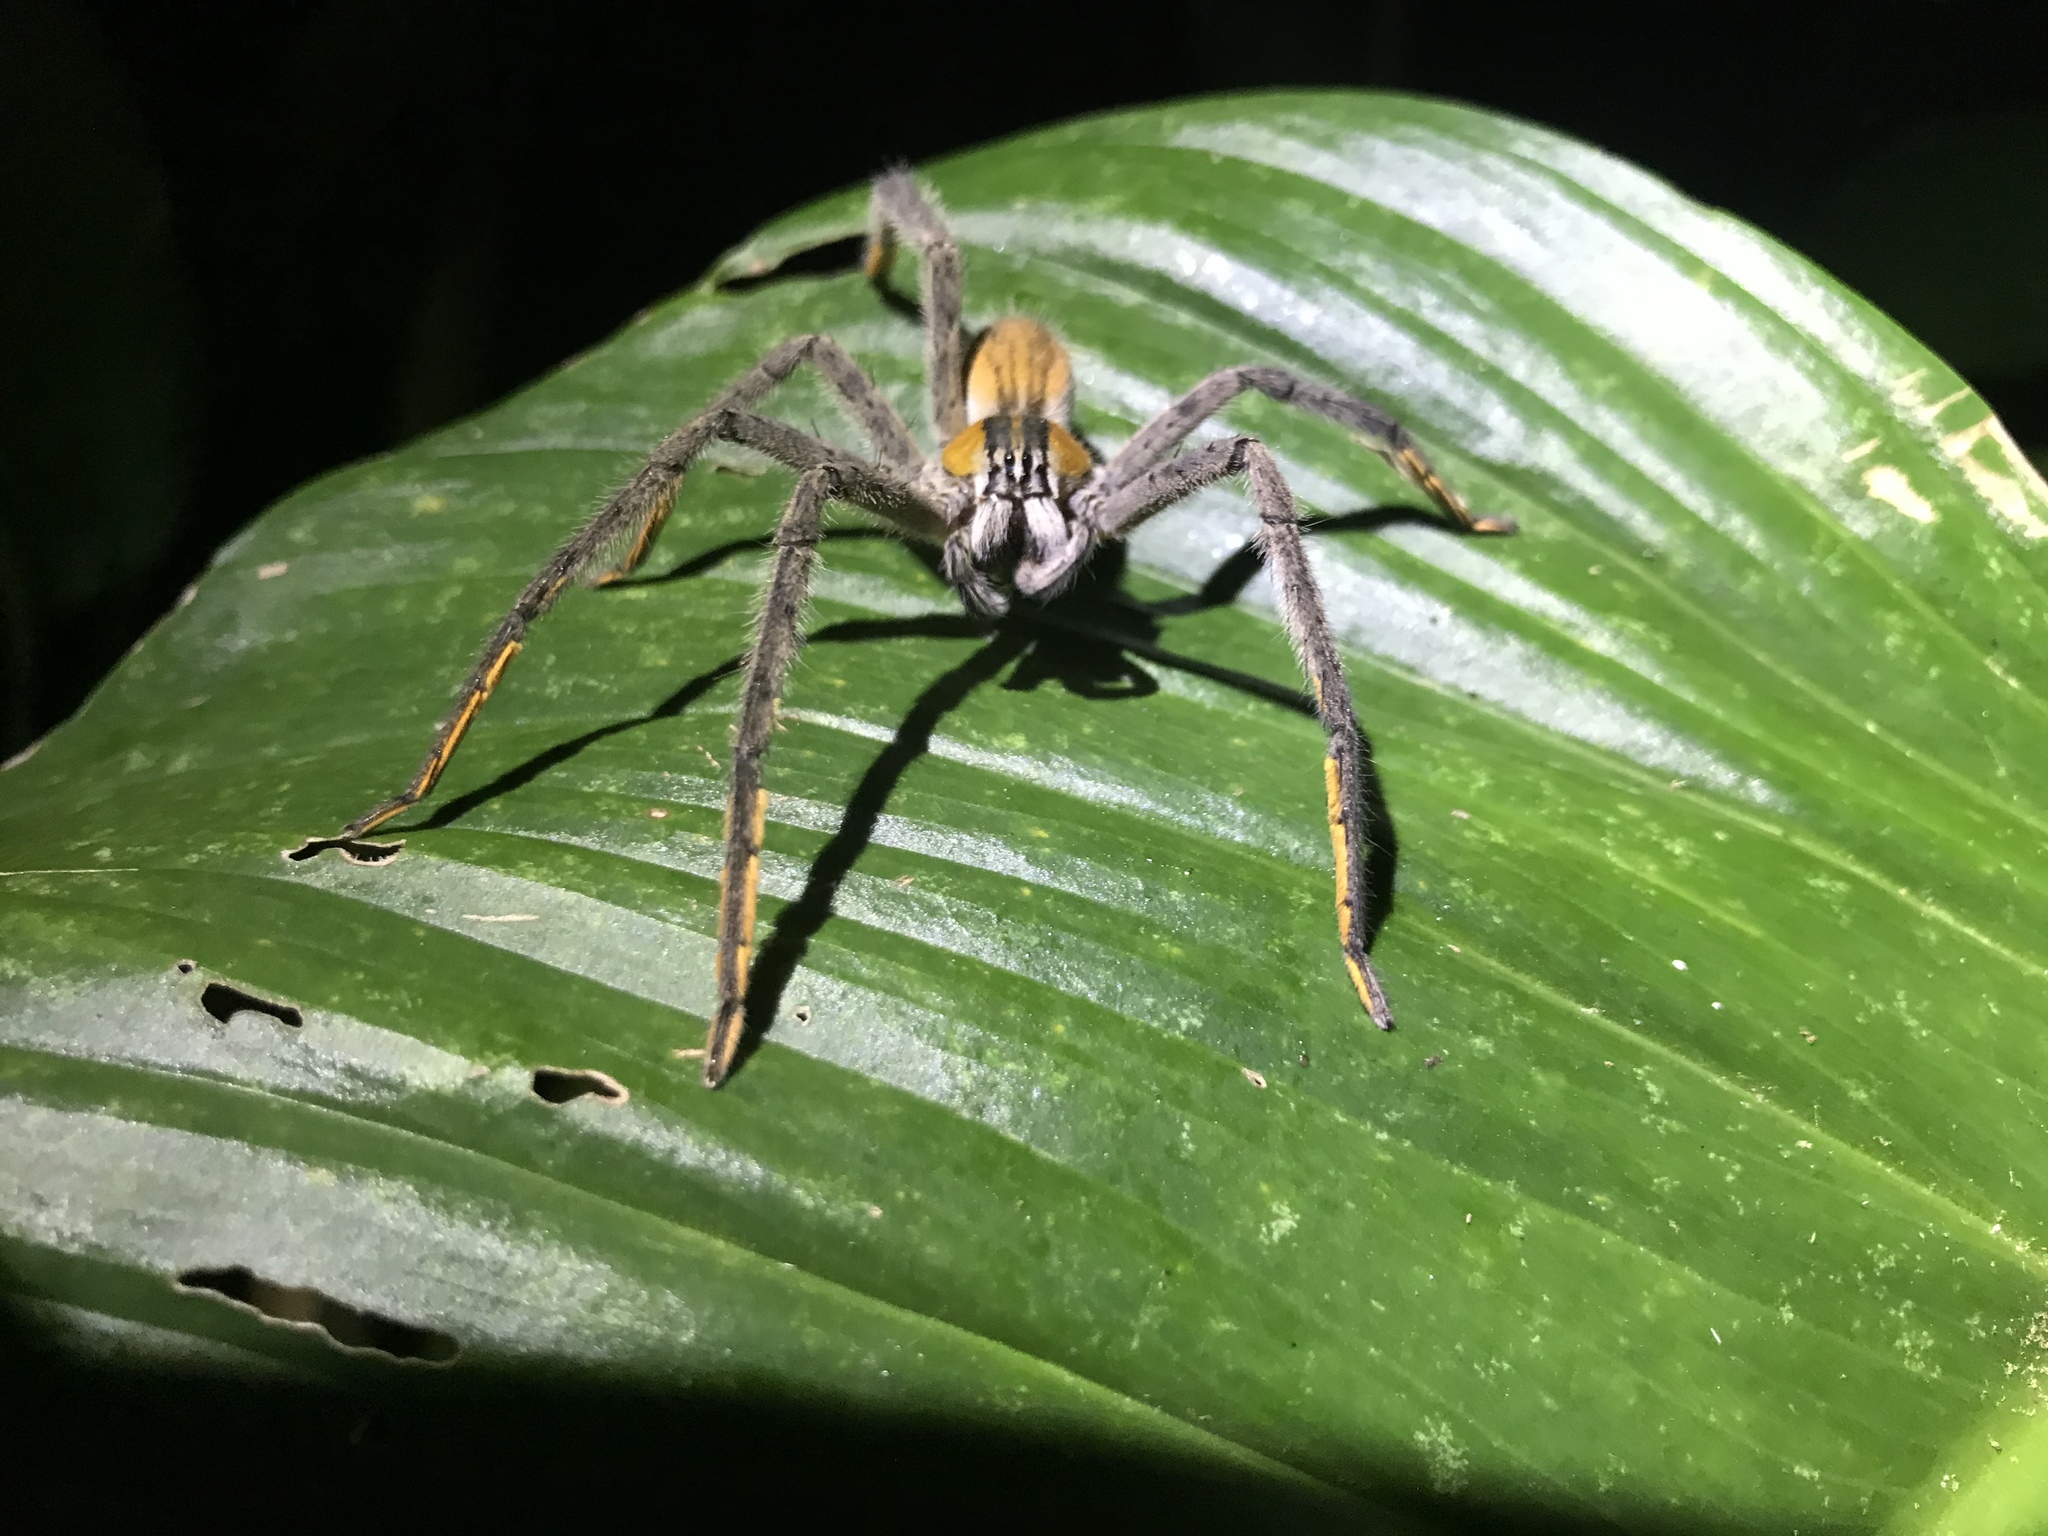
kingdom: Animalia
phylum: Arthropoda
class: Arachnida
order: Araneae
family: Trechaleidae
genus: Cupiennius
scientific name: Cupiennius getazi
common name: Wandering spiders
